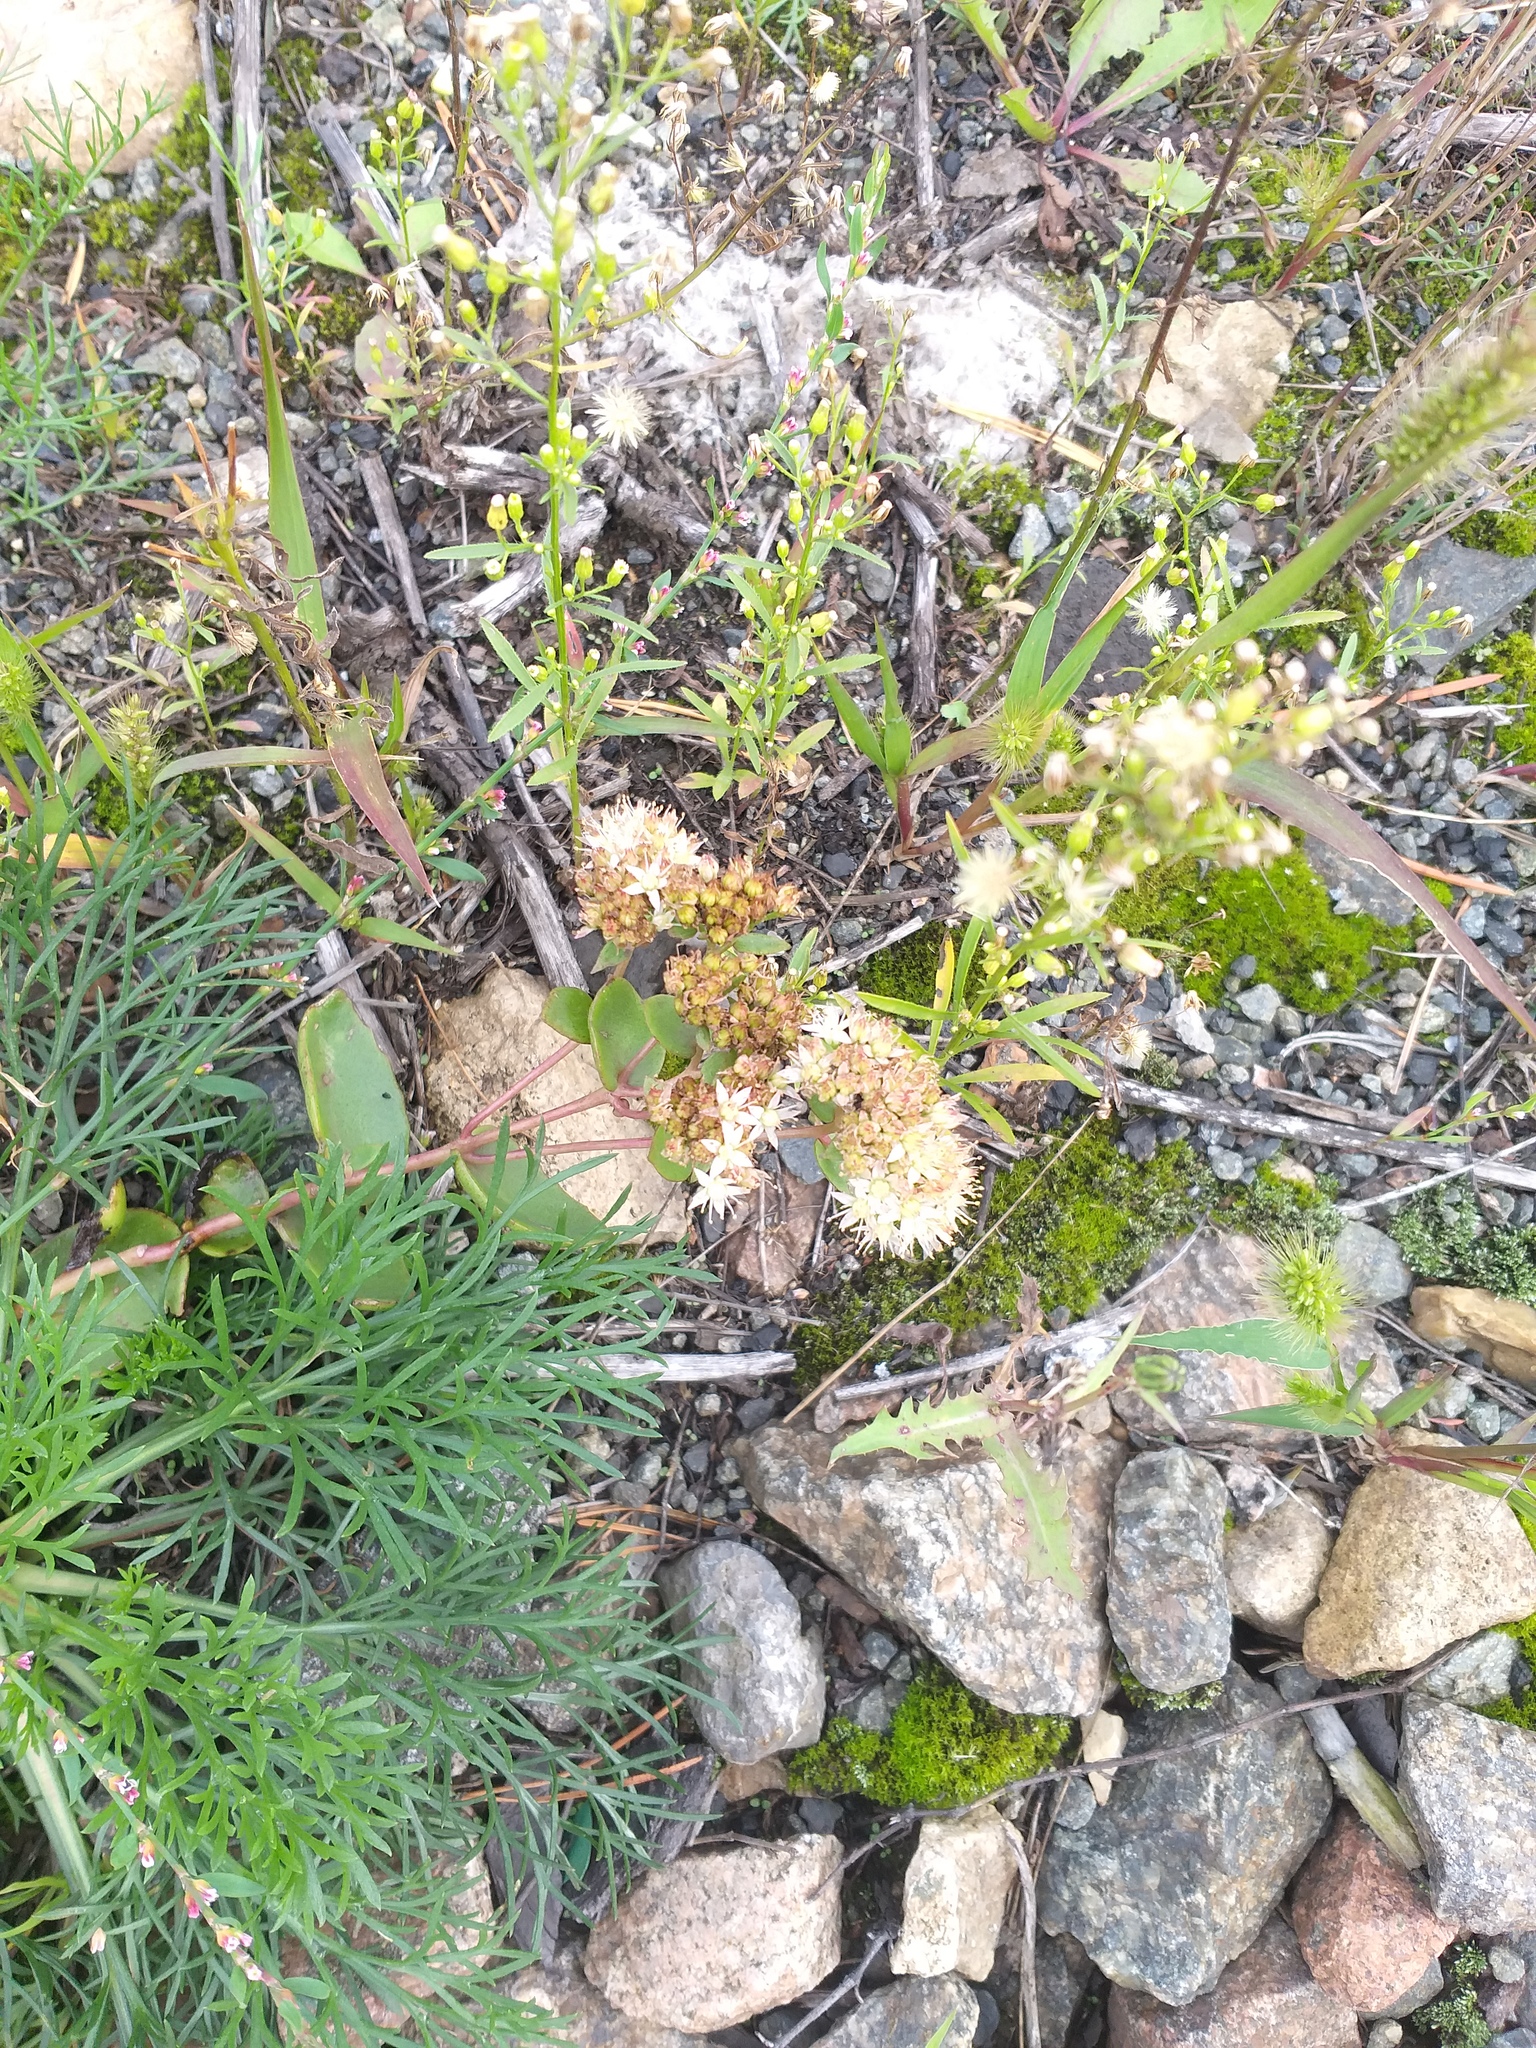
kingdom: Plantae
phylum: Tracheophyta
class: Magnoliopsida
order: Saxifragales
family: Crassulaceae
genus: Hylotelephium
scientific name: Hylotelephium maximum
